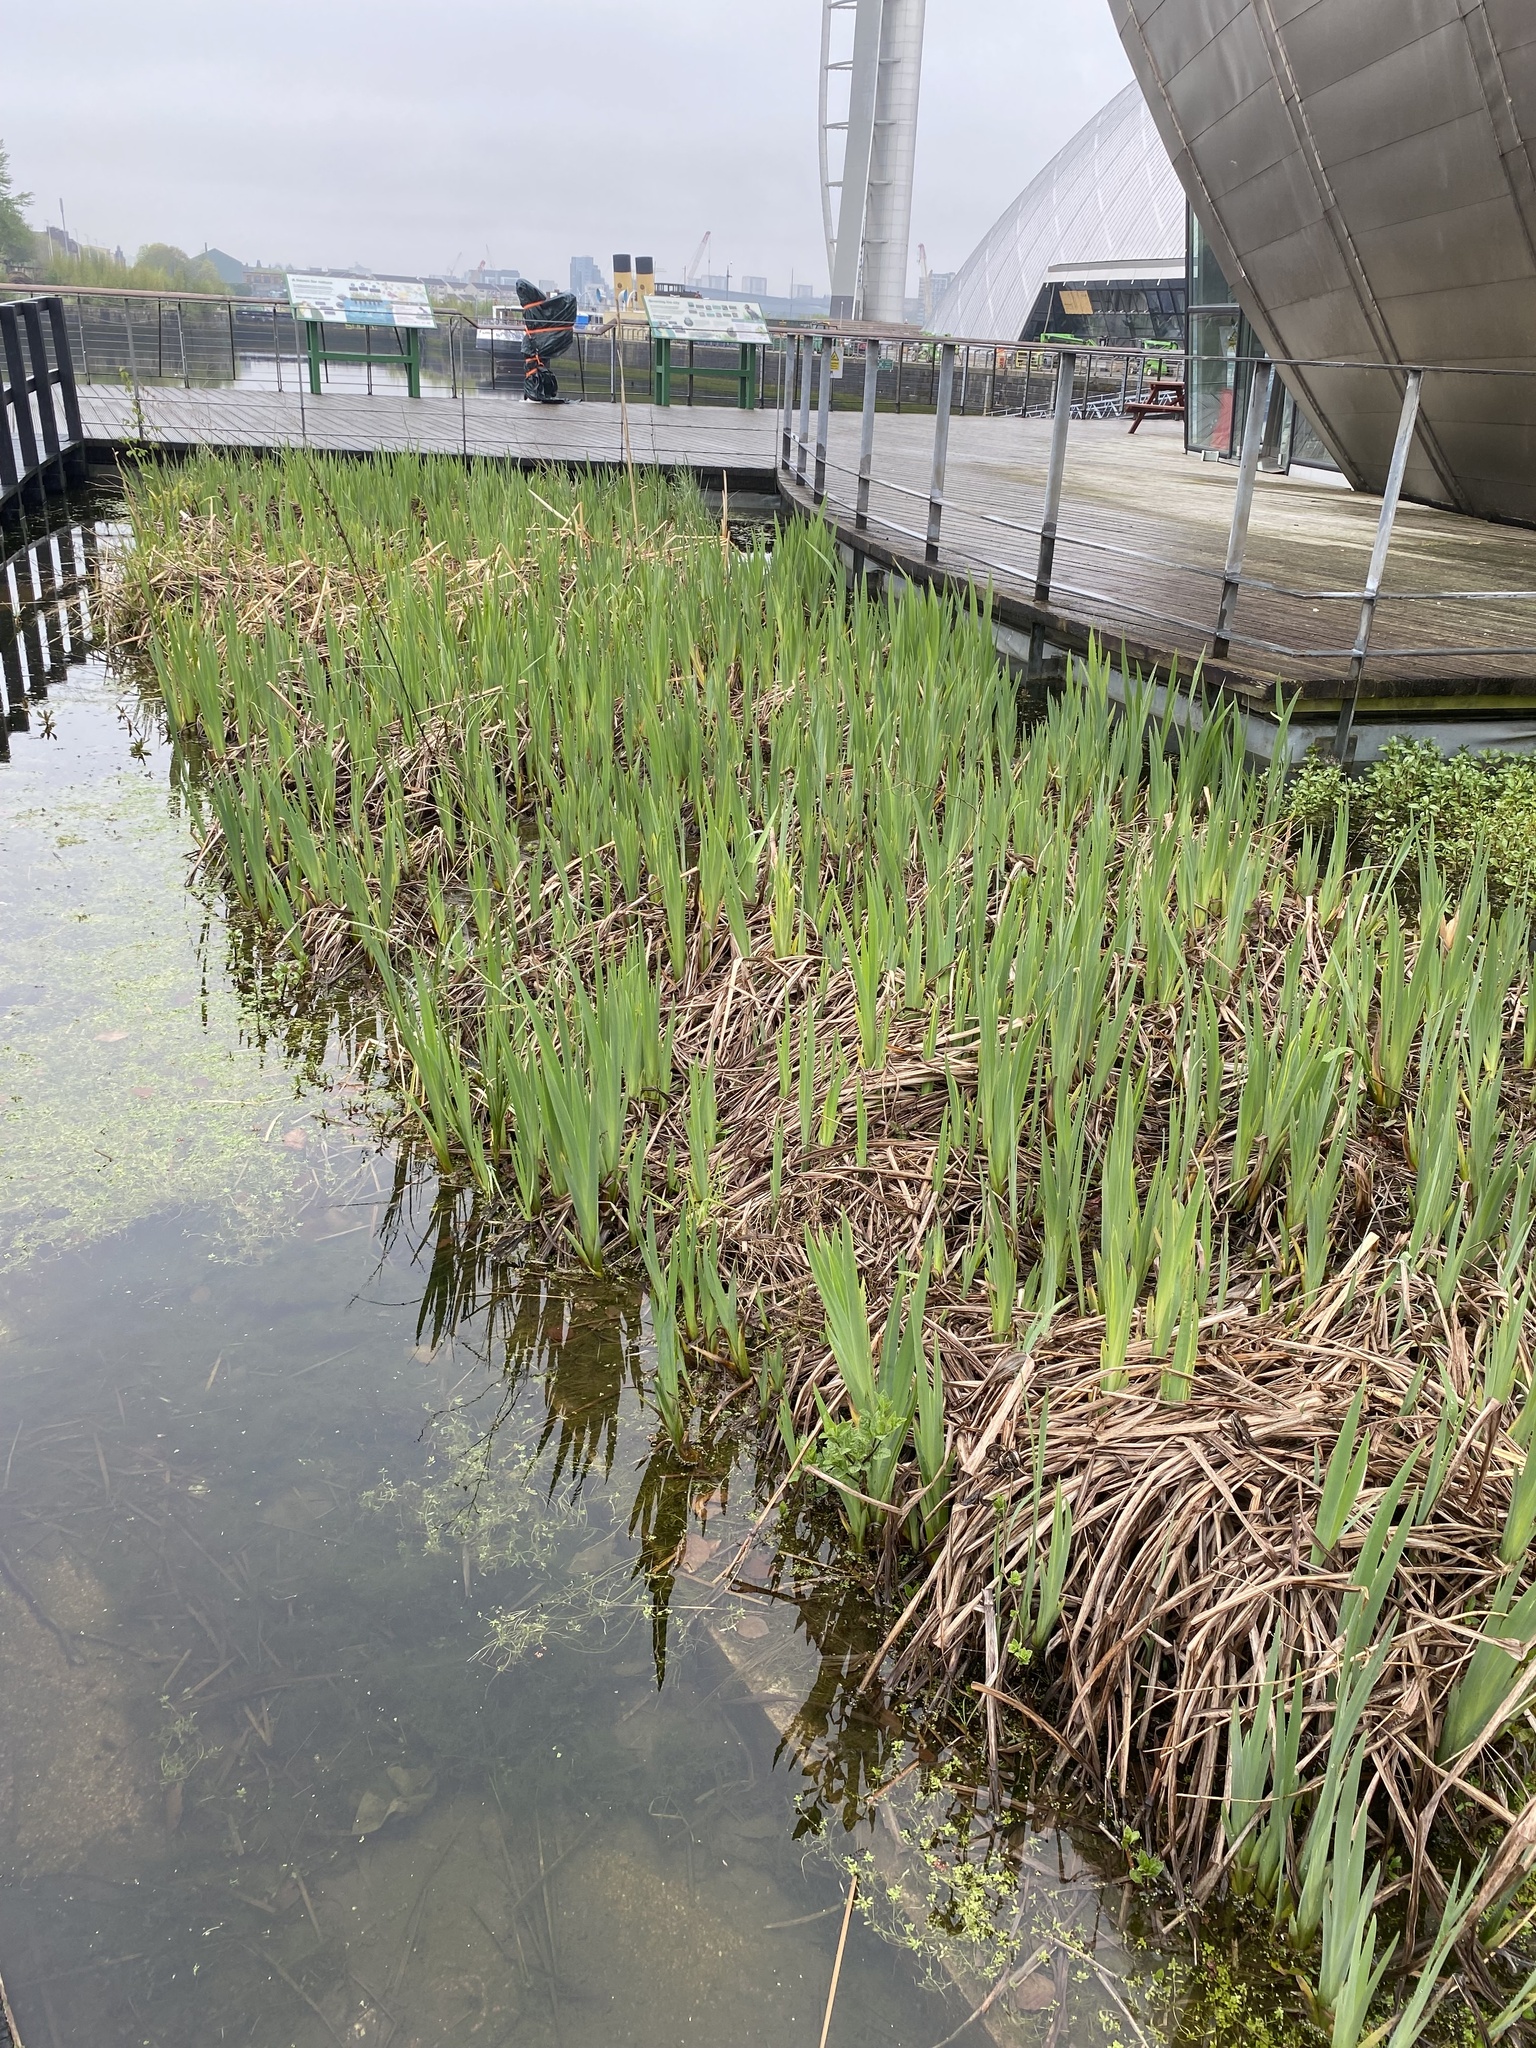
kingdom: Plantae
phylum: Tracheophyta
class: Liliopsida
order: Asparagales
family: Iridaceae
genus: Iris
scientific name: Iris pseudacorus
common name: Yellow flag
